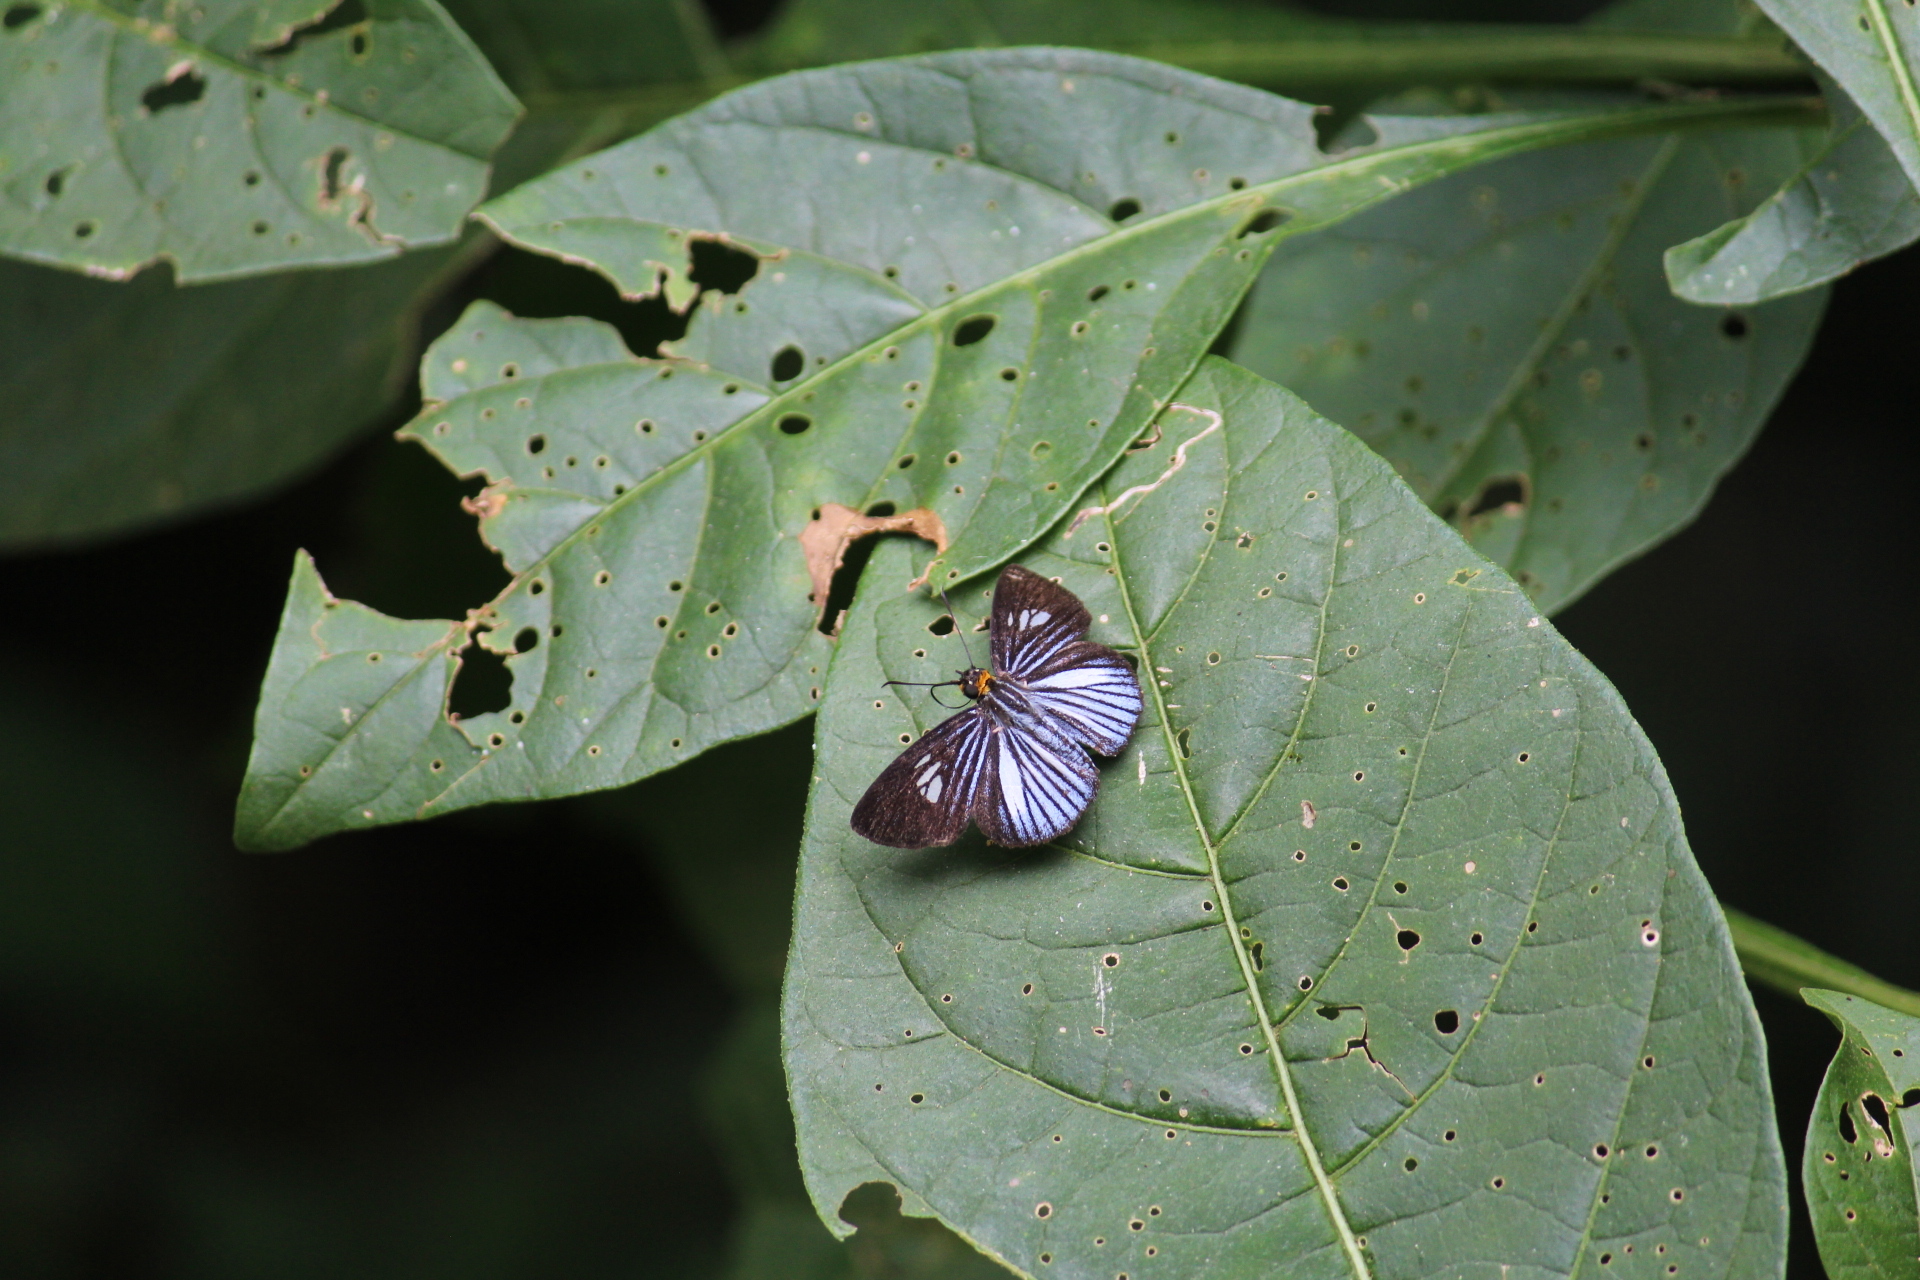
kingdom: Animalia
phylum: Arthropoda
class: Insecta
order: Lepidoptera
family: Hesperiidae
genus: Pythonides
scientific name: Pythonides lancea
